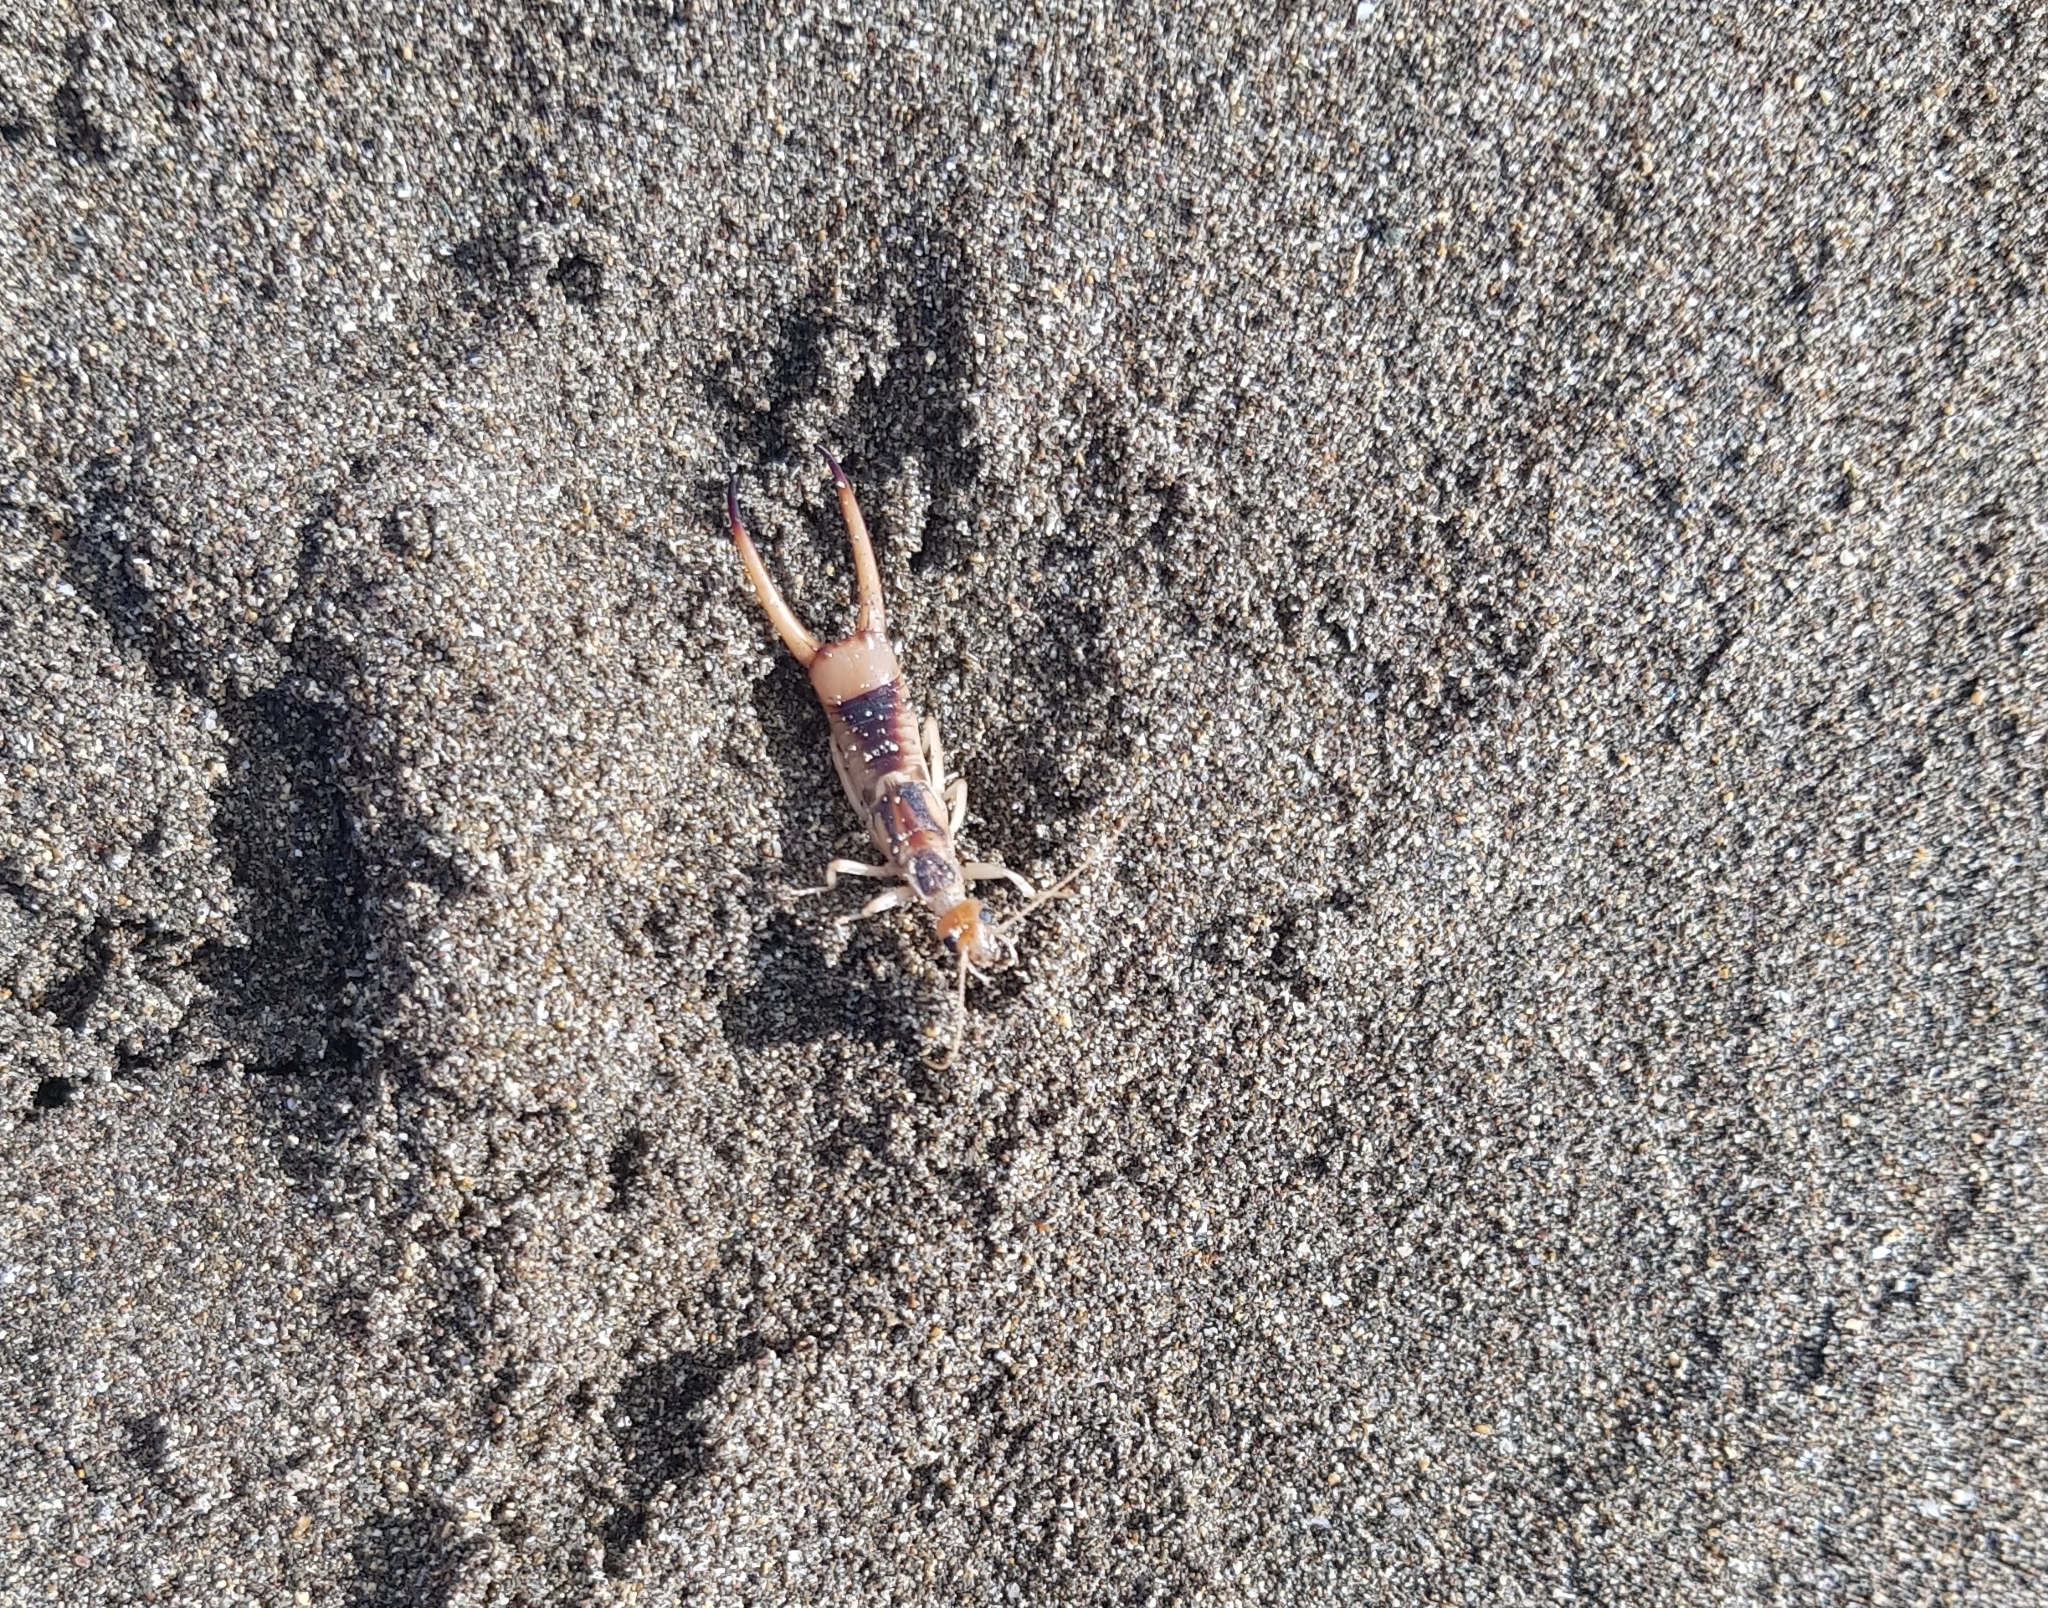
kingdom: Animalia
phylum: Arthropoda
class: Insecta
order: Dermaptera
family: Labiduridae
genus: Labidura
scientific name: Labidura riparia
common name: Striped earwig
